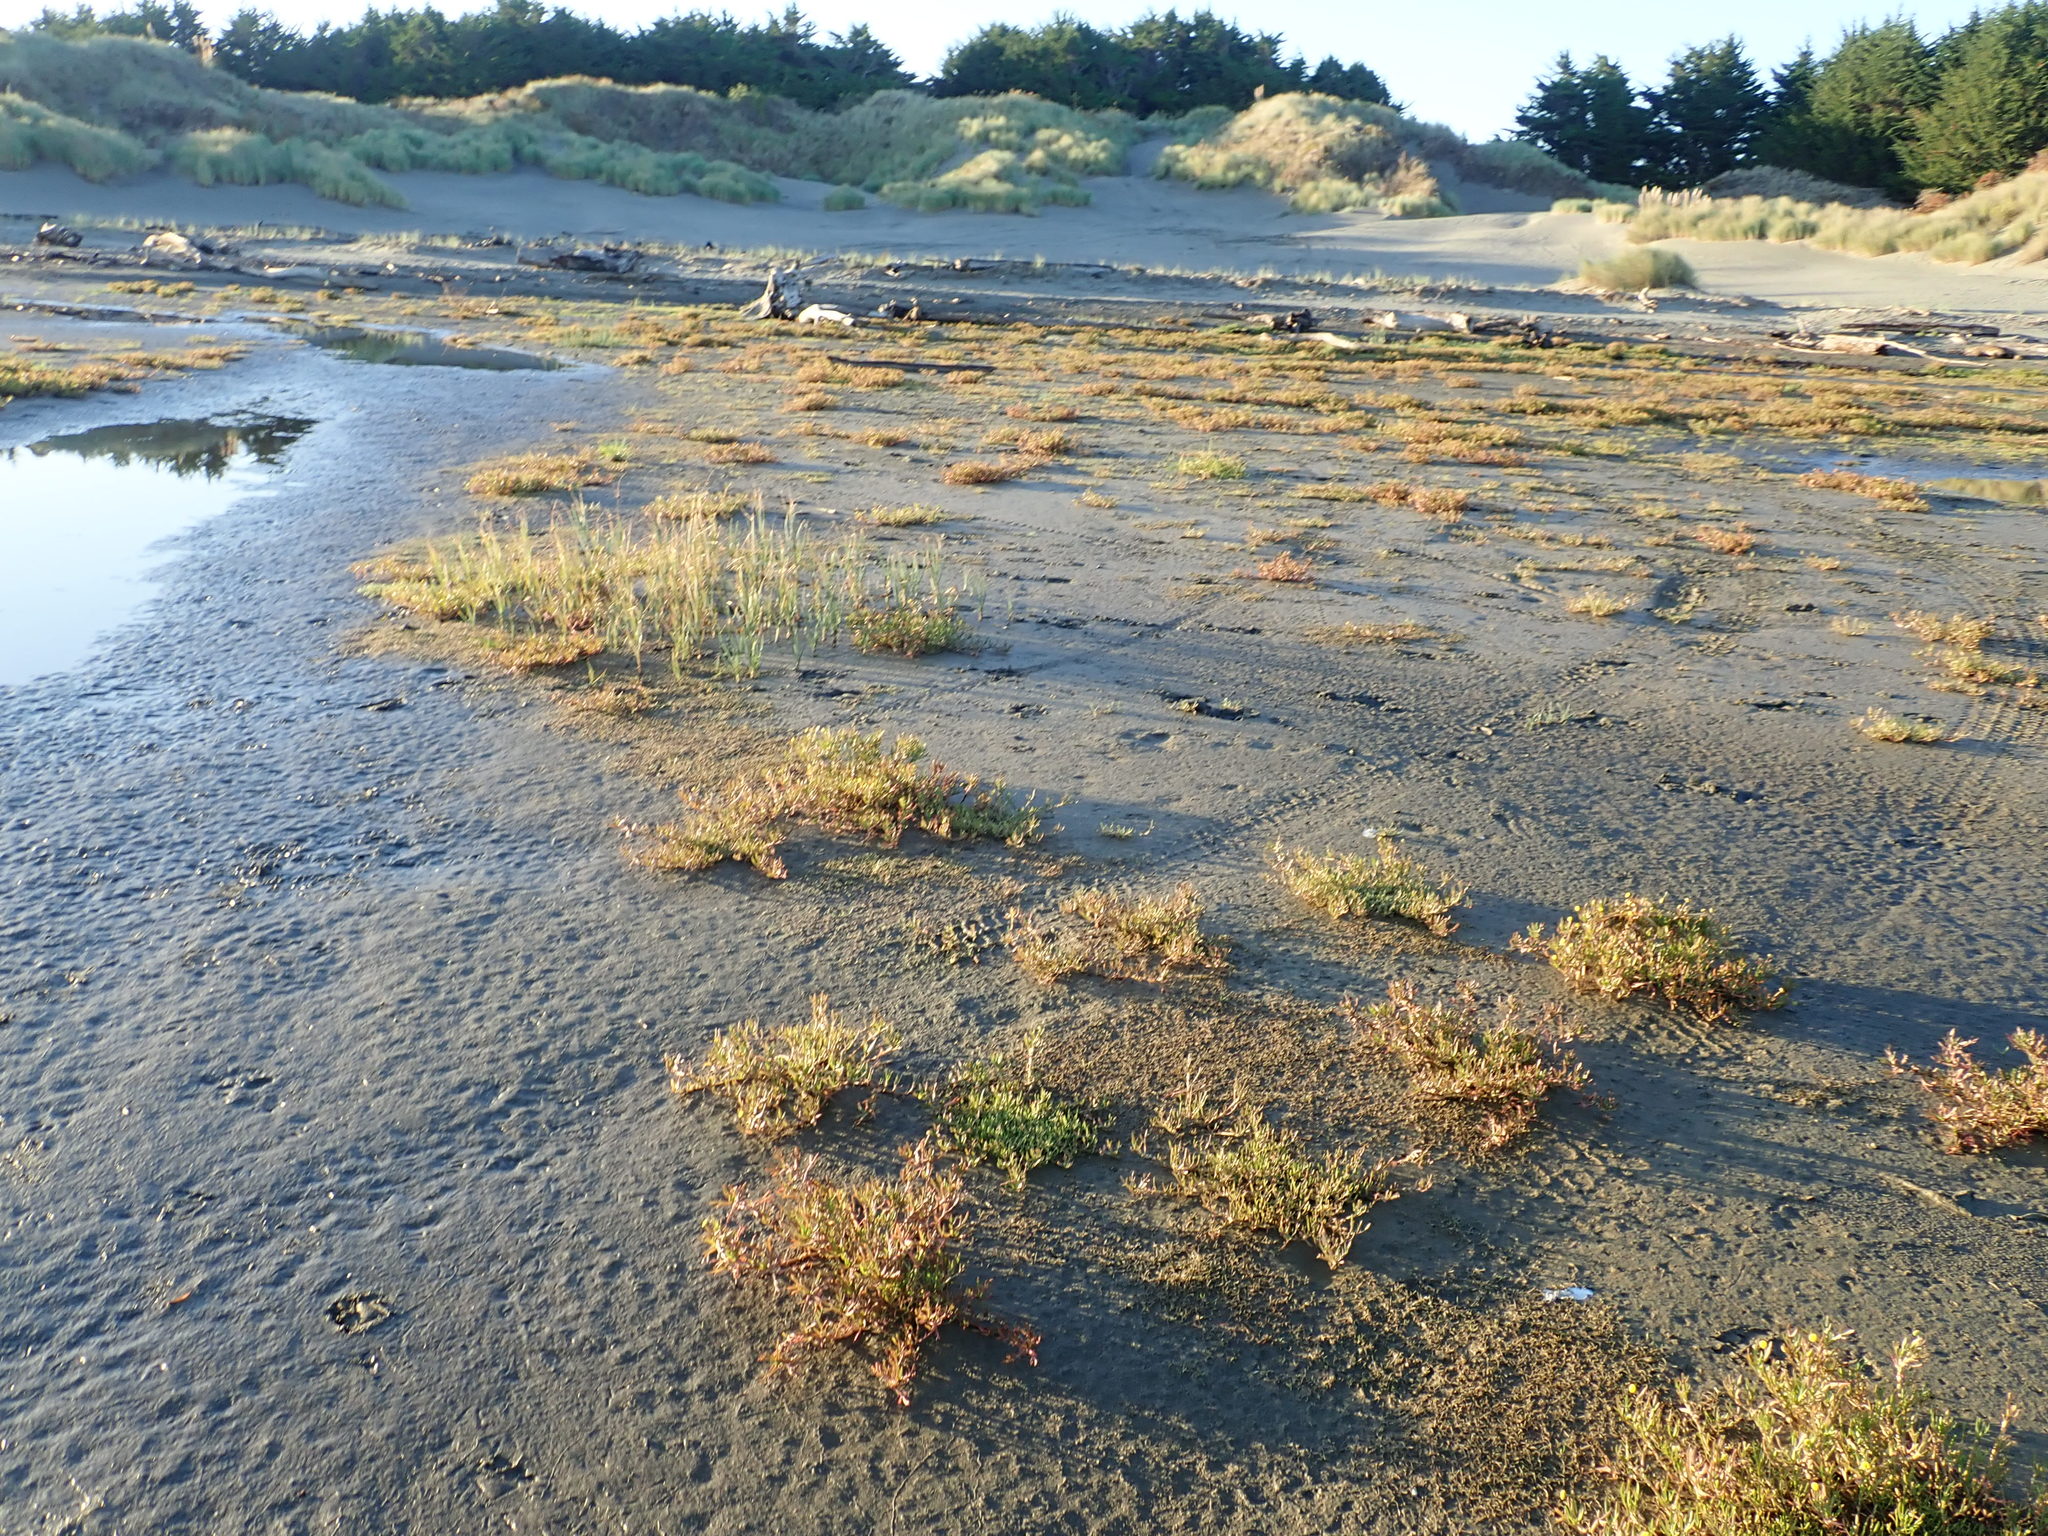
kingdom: Plantae
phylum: Tracheophyta
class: Magnoliopsida
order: Lamiales
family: Scrophulariaceae
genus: Limosella
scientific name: Limosella australis
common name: Welsh mudwort
